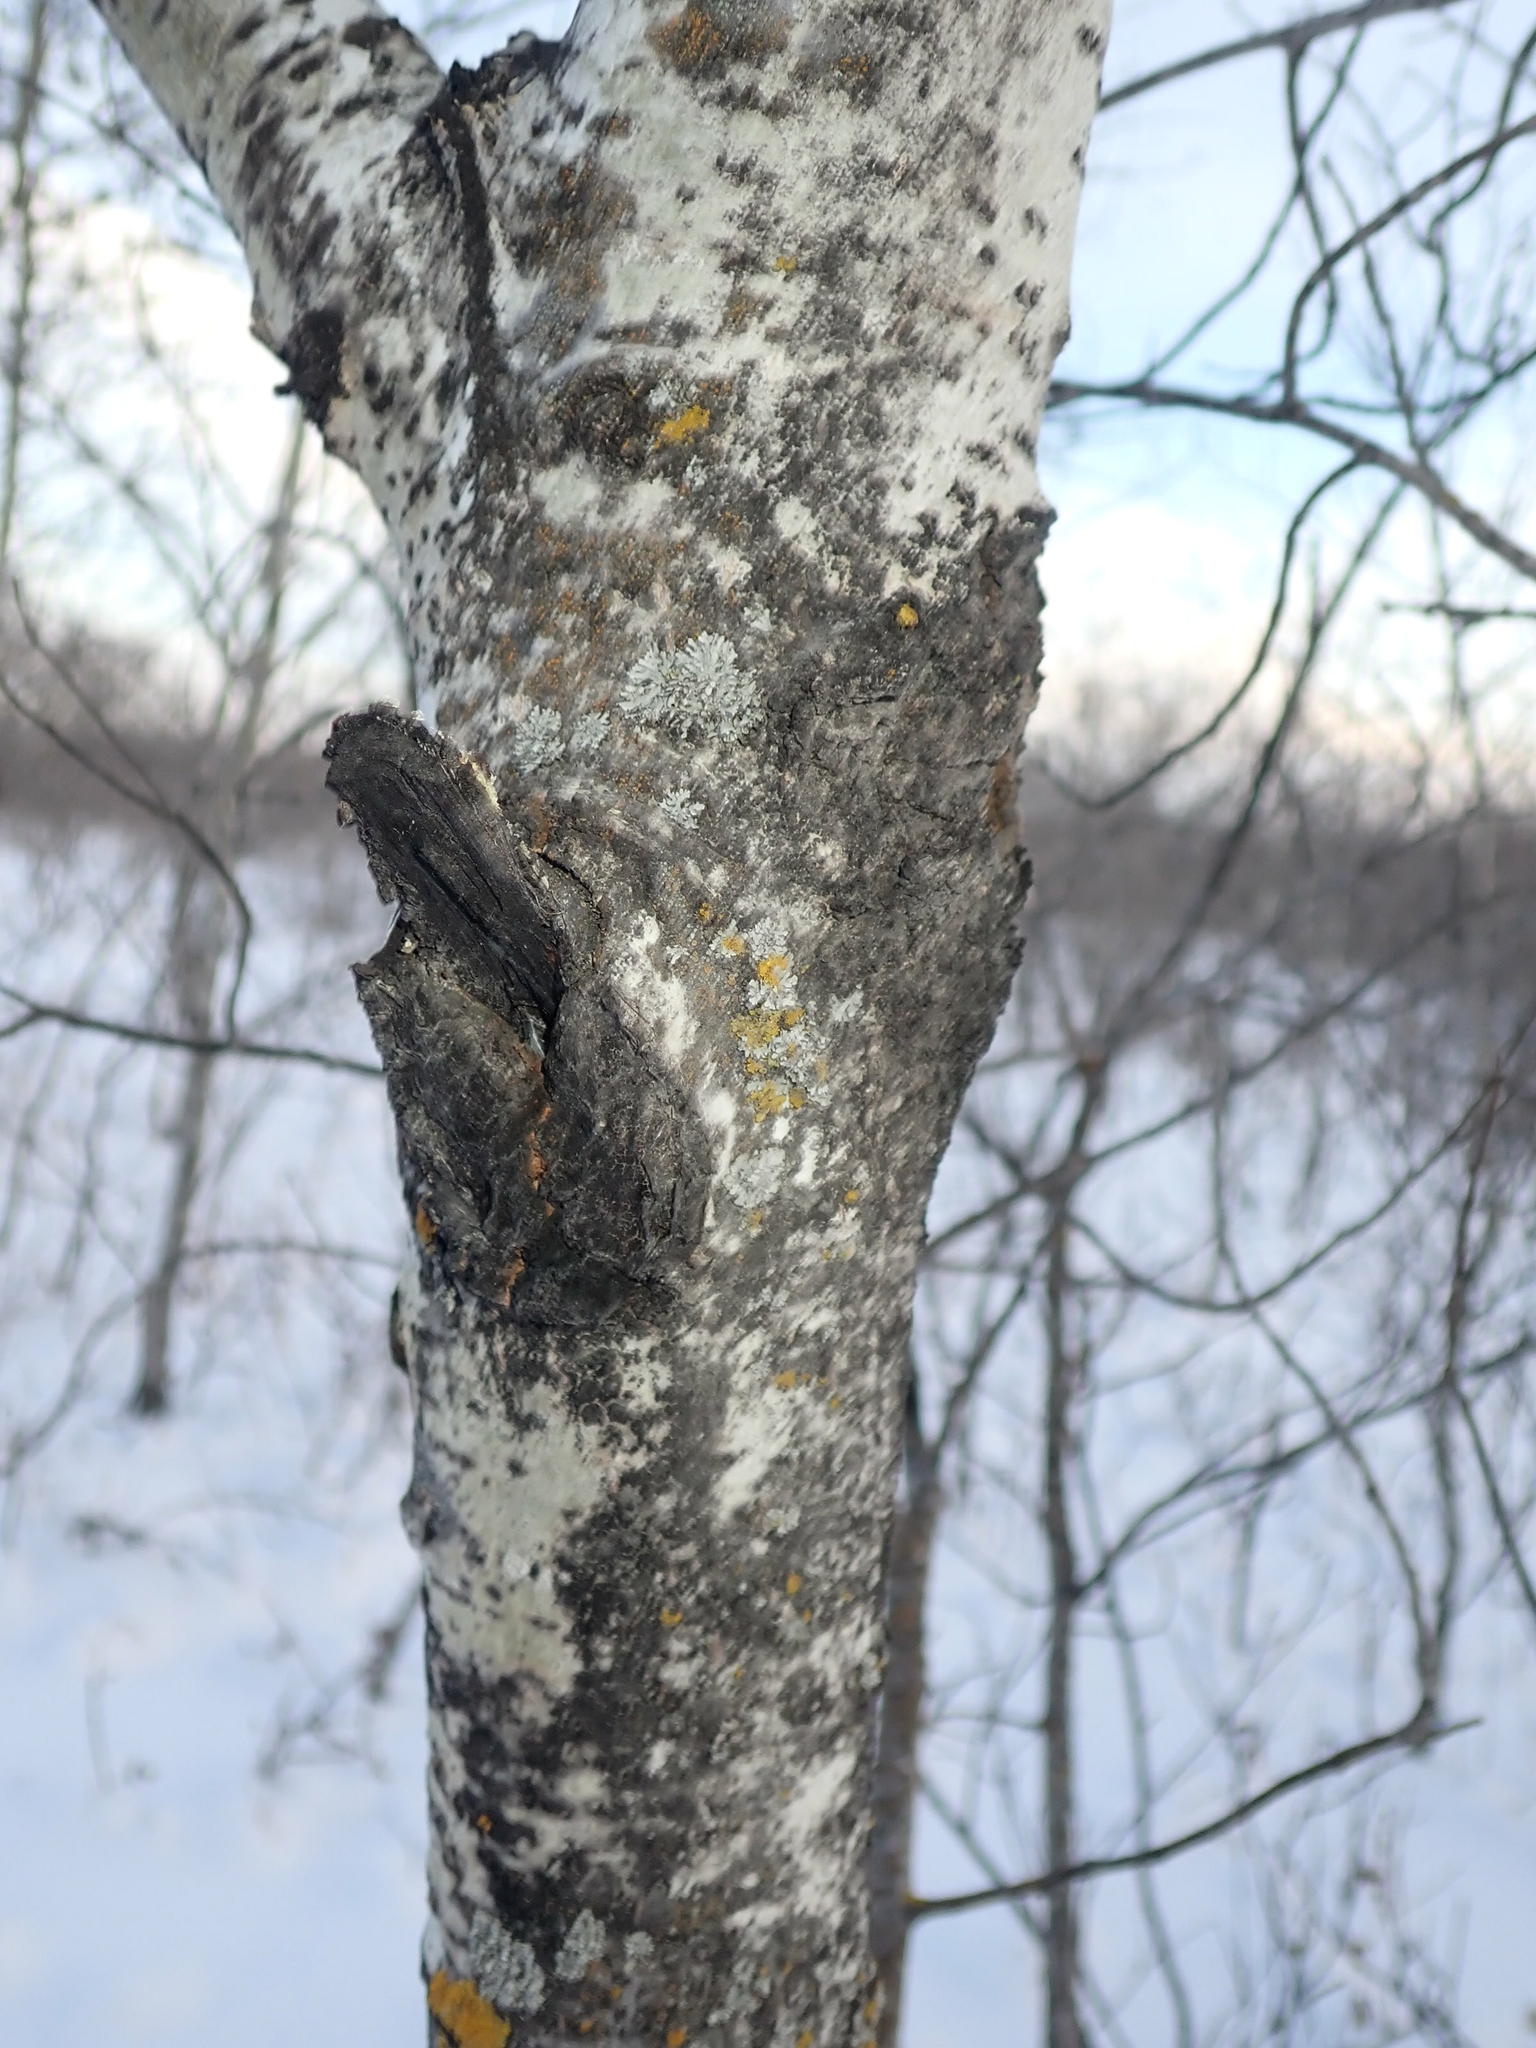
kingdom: Plantae
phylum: Tracheophyta
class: Magnoliopsida
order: Malpighiales
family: Salicaceae
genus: Populus
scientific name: Populus tremuloides
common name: Quaking aspen
